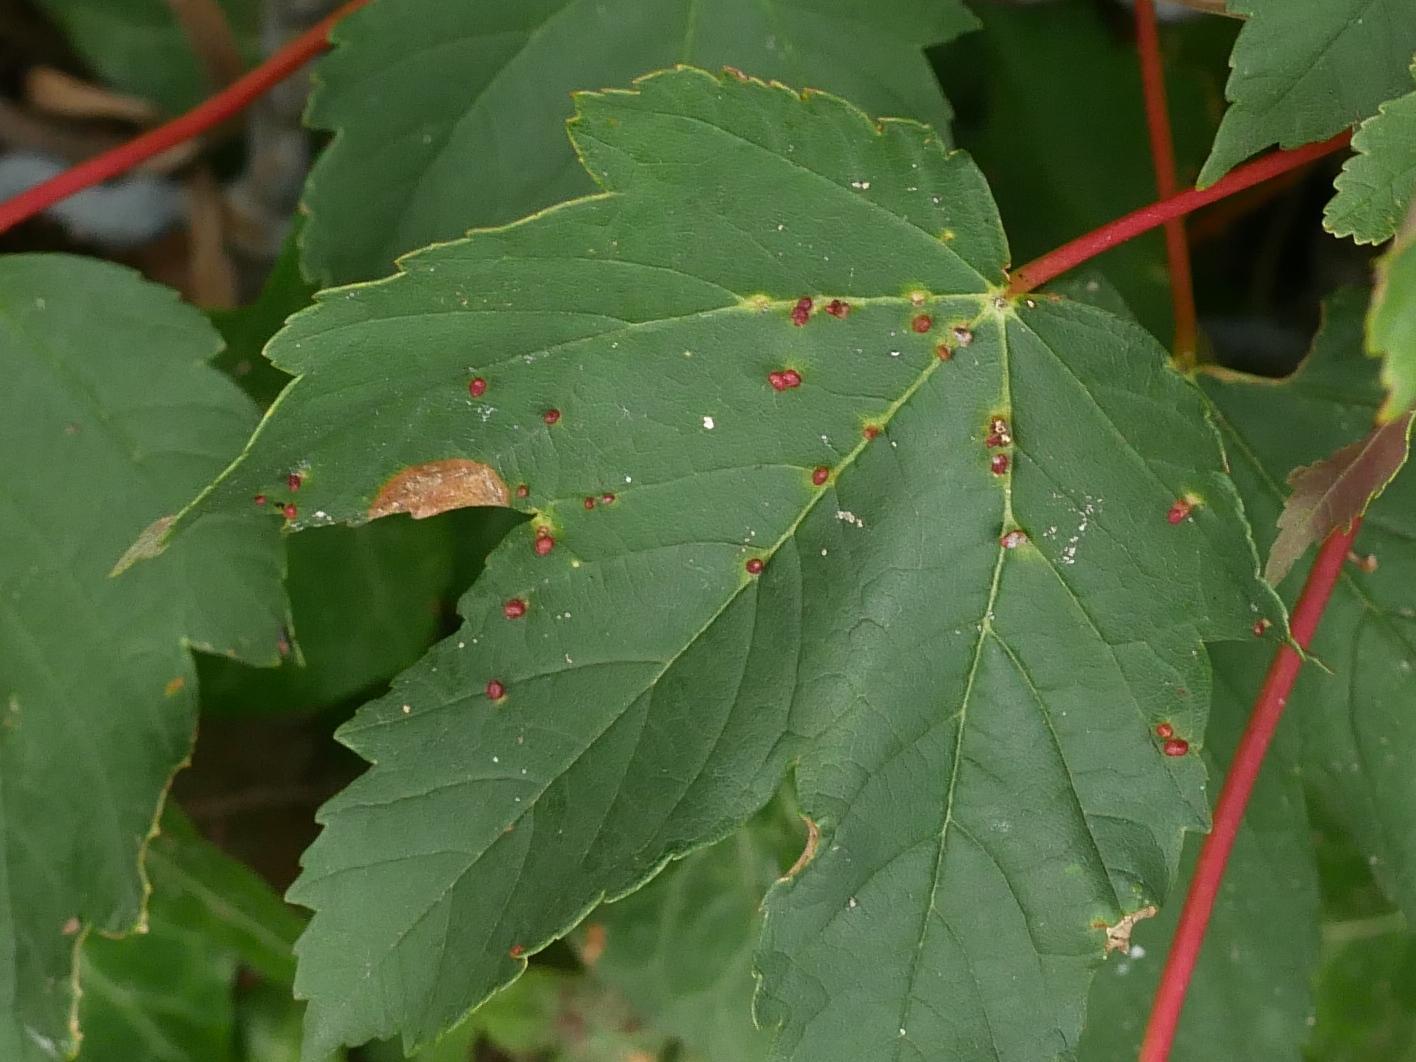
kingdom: Animalia
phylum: Arthropoda
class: Arachnida
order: Trombidiformes
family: Eriophyidae
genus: Aceria
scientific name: Aceria cephaloneus
